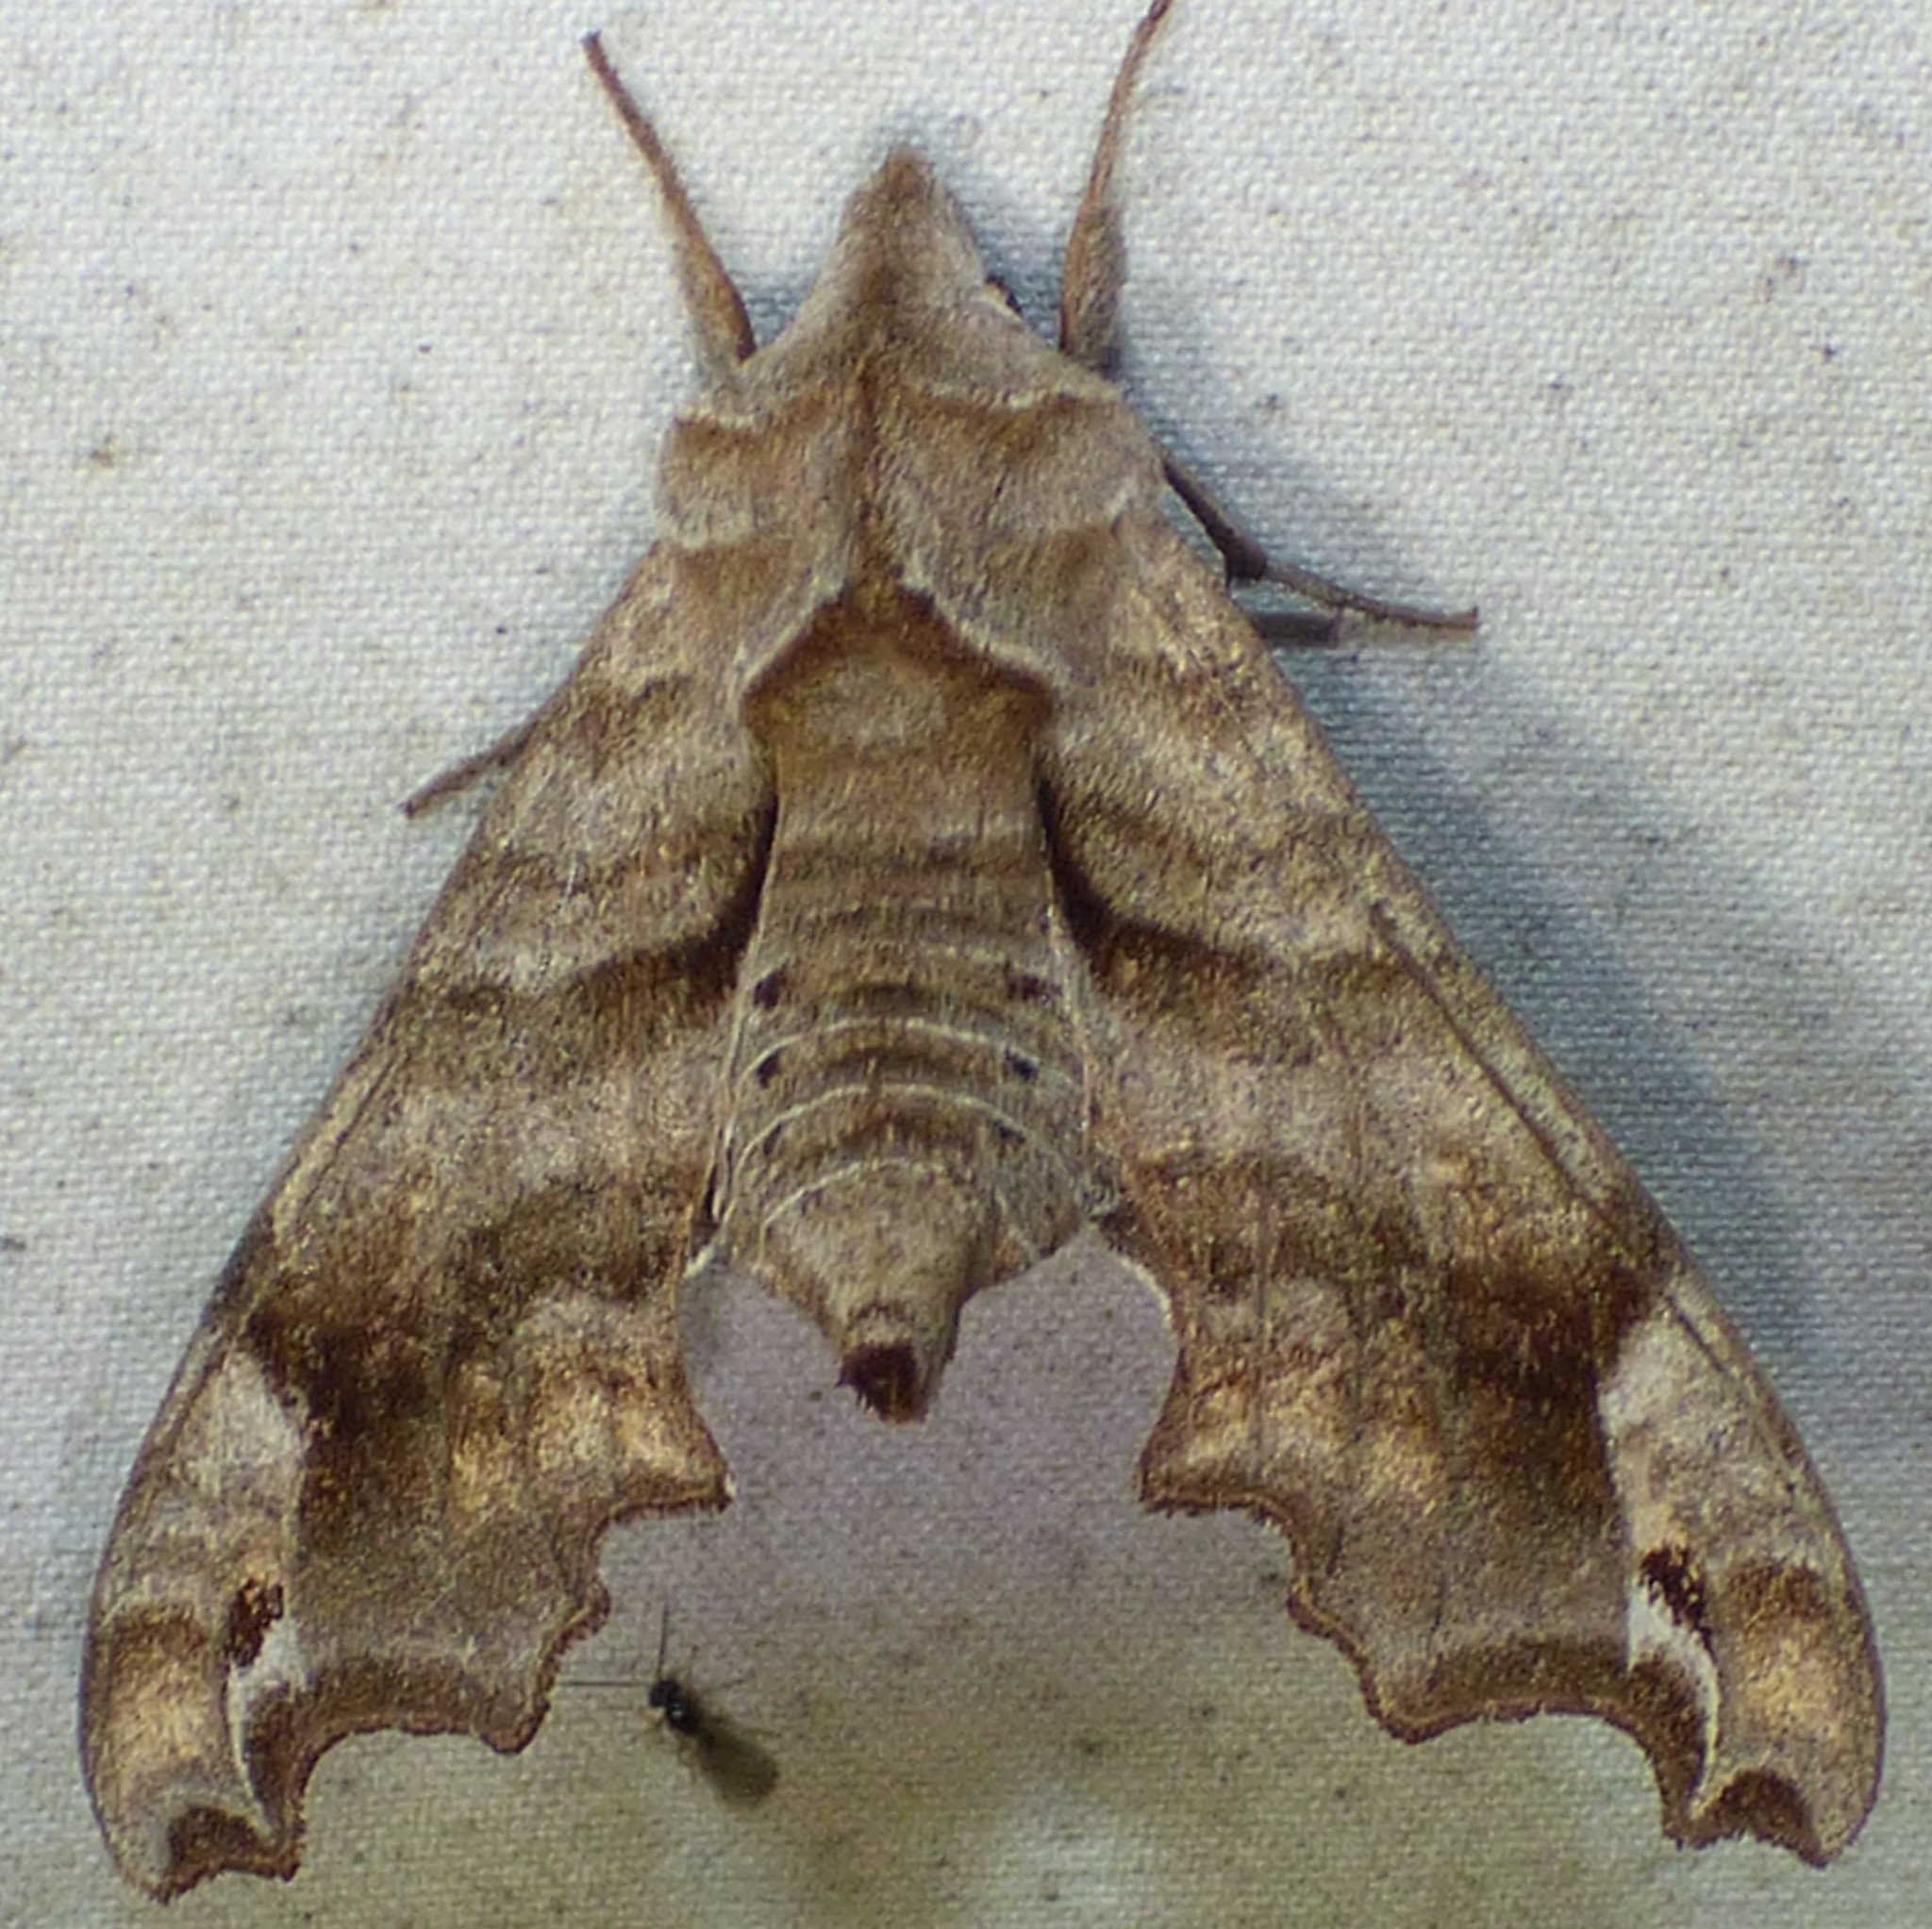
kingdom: Animalia
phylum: Arthropoda
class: Insecta
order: Lepidoptera
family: Sphingidae
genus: Deidamia
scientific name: Deidamia inscriptum
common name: Lettered sphinx
